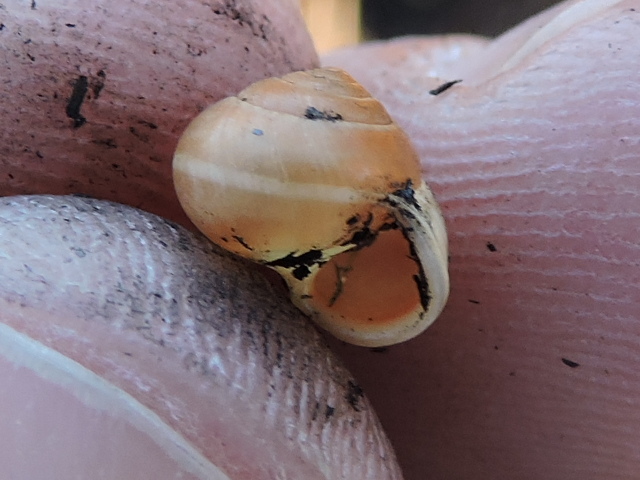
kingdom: Animalia
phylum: Mollusca
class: Gastropoda
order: Cycloneritida
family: Helicinidae
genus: Helicina
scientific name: Helicina orbiculata
